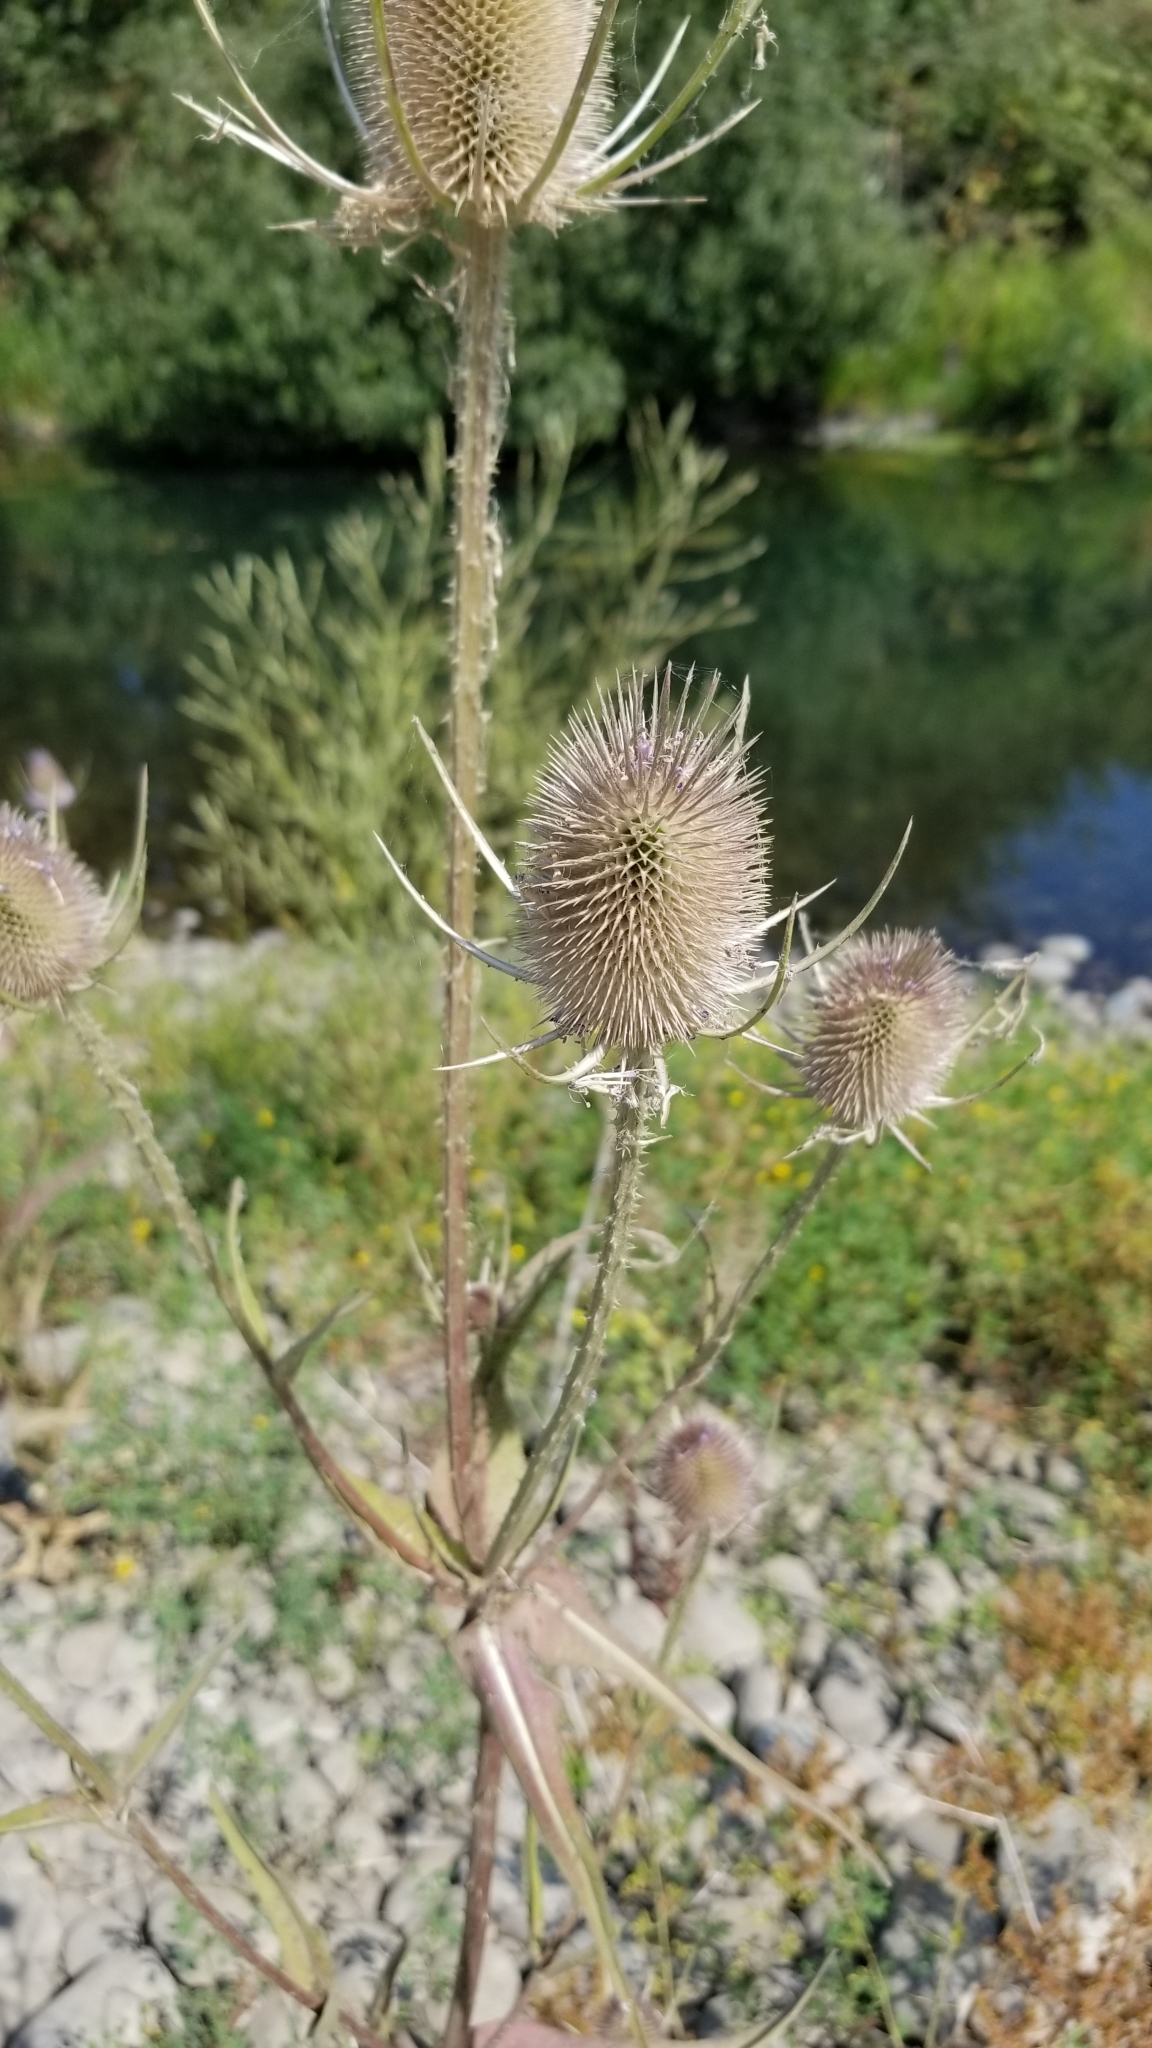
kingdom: Plantae
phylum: Tracheophyta
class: Magnoliopsida
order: Dipsacales
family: Caprifoliaceae
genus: Dipsacus
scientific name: Dipsacus fullonum
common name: Teasel
